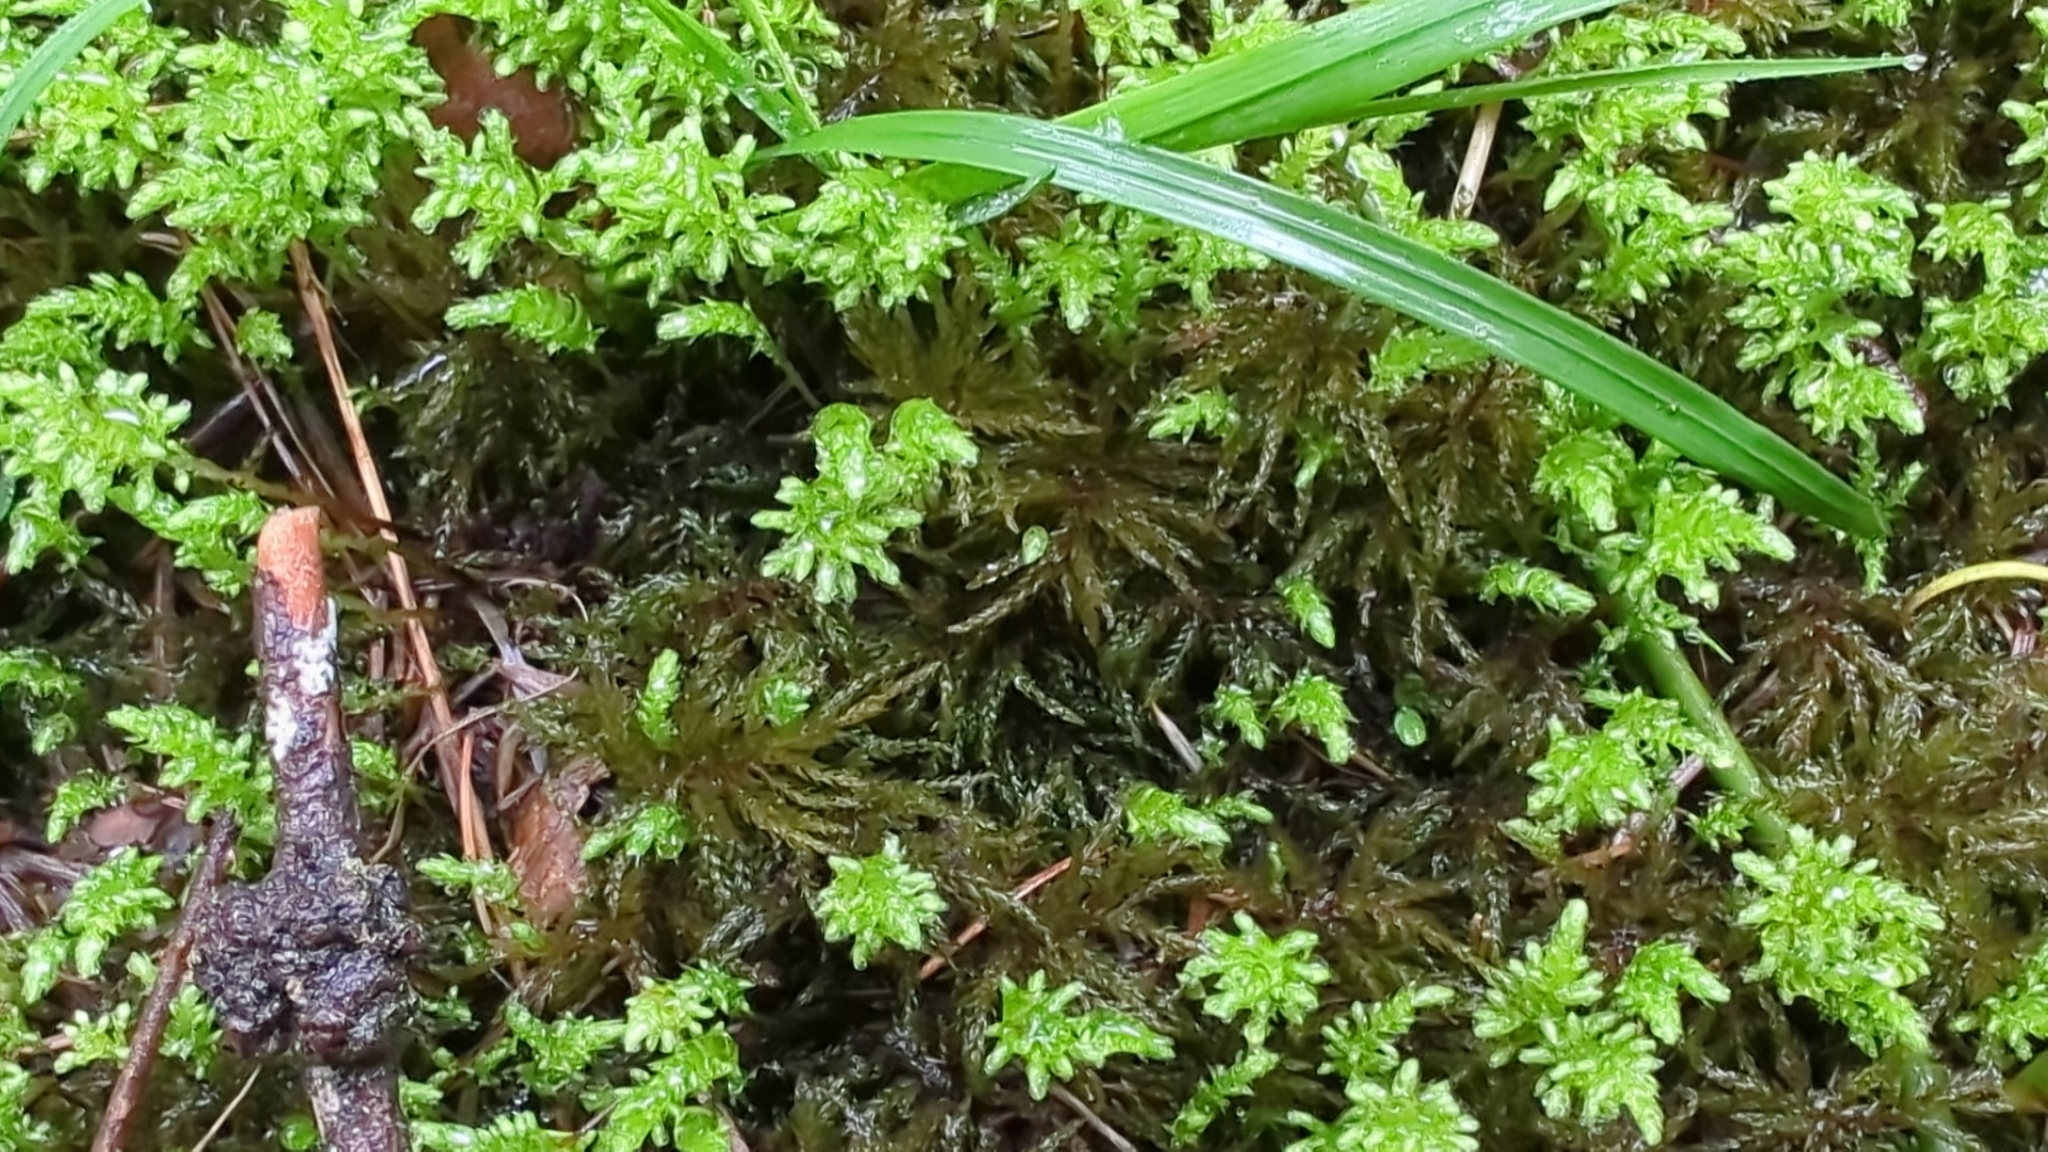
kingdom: Plantae
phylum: Bryophyta
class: Bryopsida
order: Bryales
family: Mniaceae
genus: Leucolepis
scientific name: Leucolepis acanthoneura
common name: Leucolepis umbrella moss
